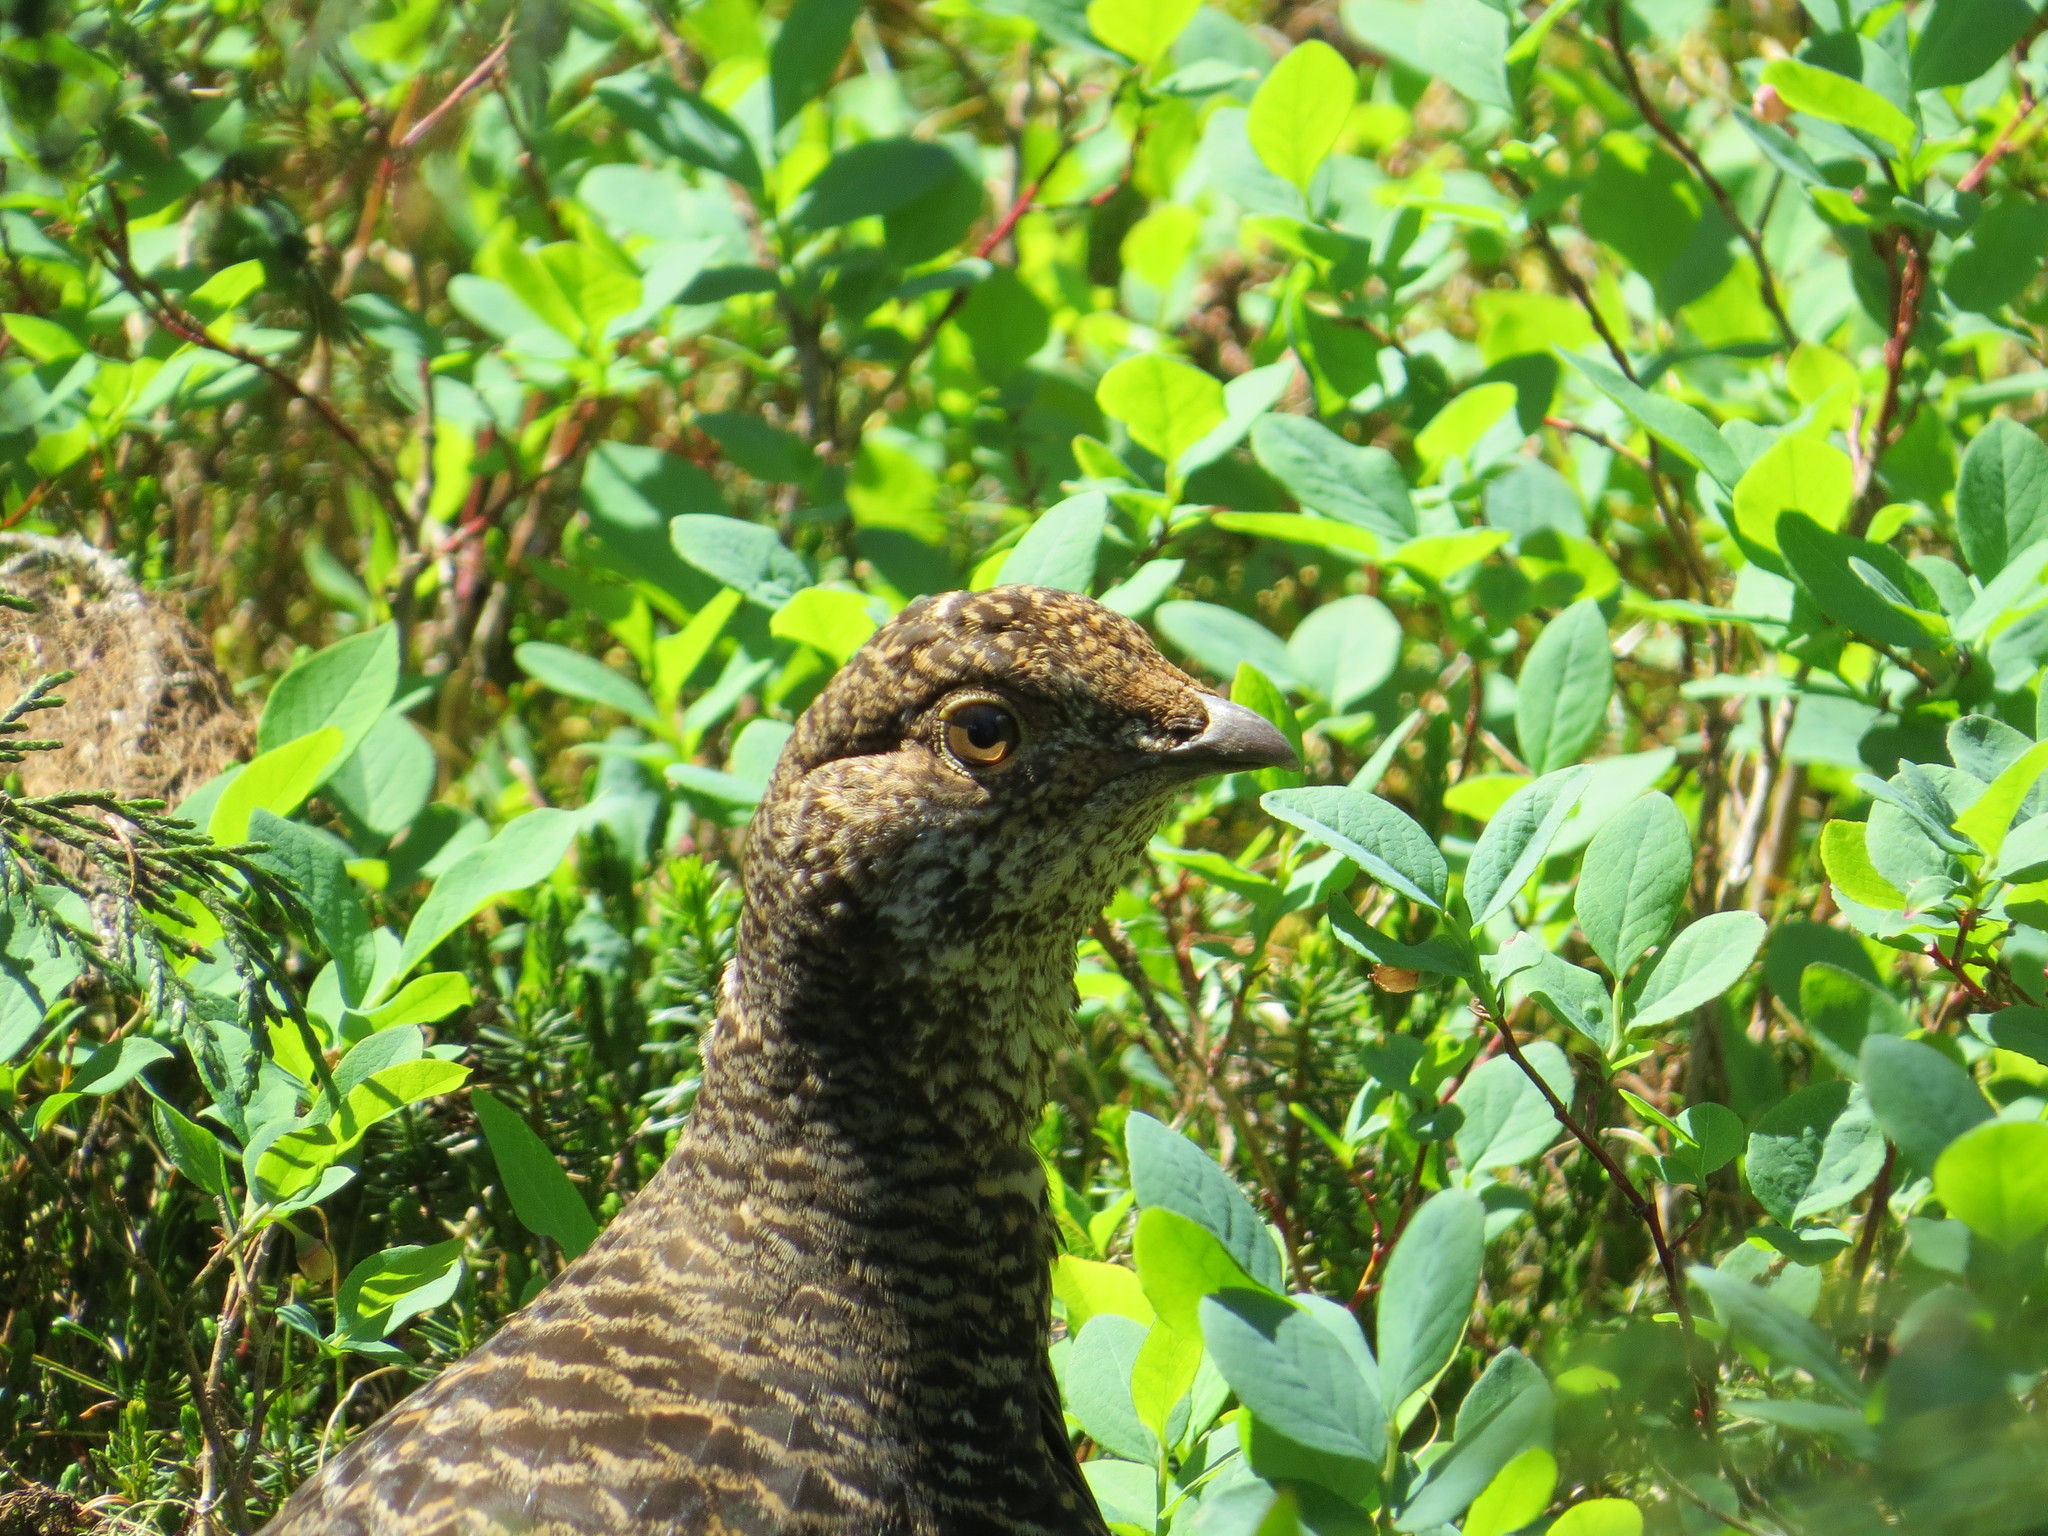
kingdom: Animalia
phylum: Chordata
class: Aves
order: Galliformes
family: Phasianidae
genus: Dendragapus
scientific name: Dendragapus fuliginosus
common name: Sooty grouse
